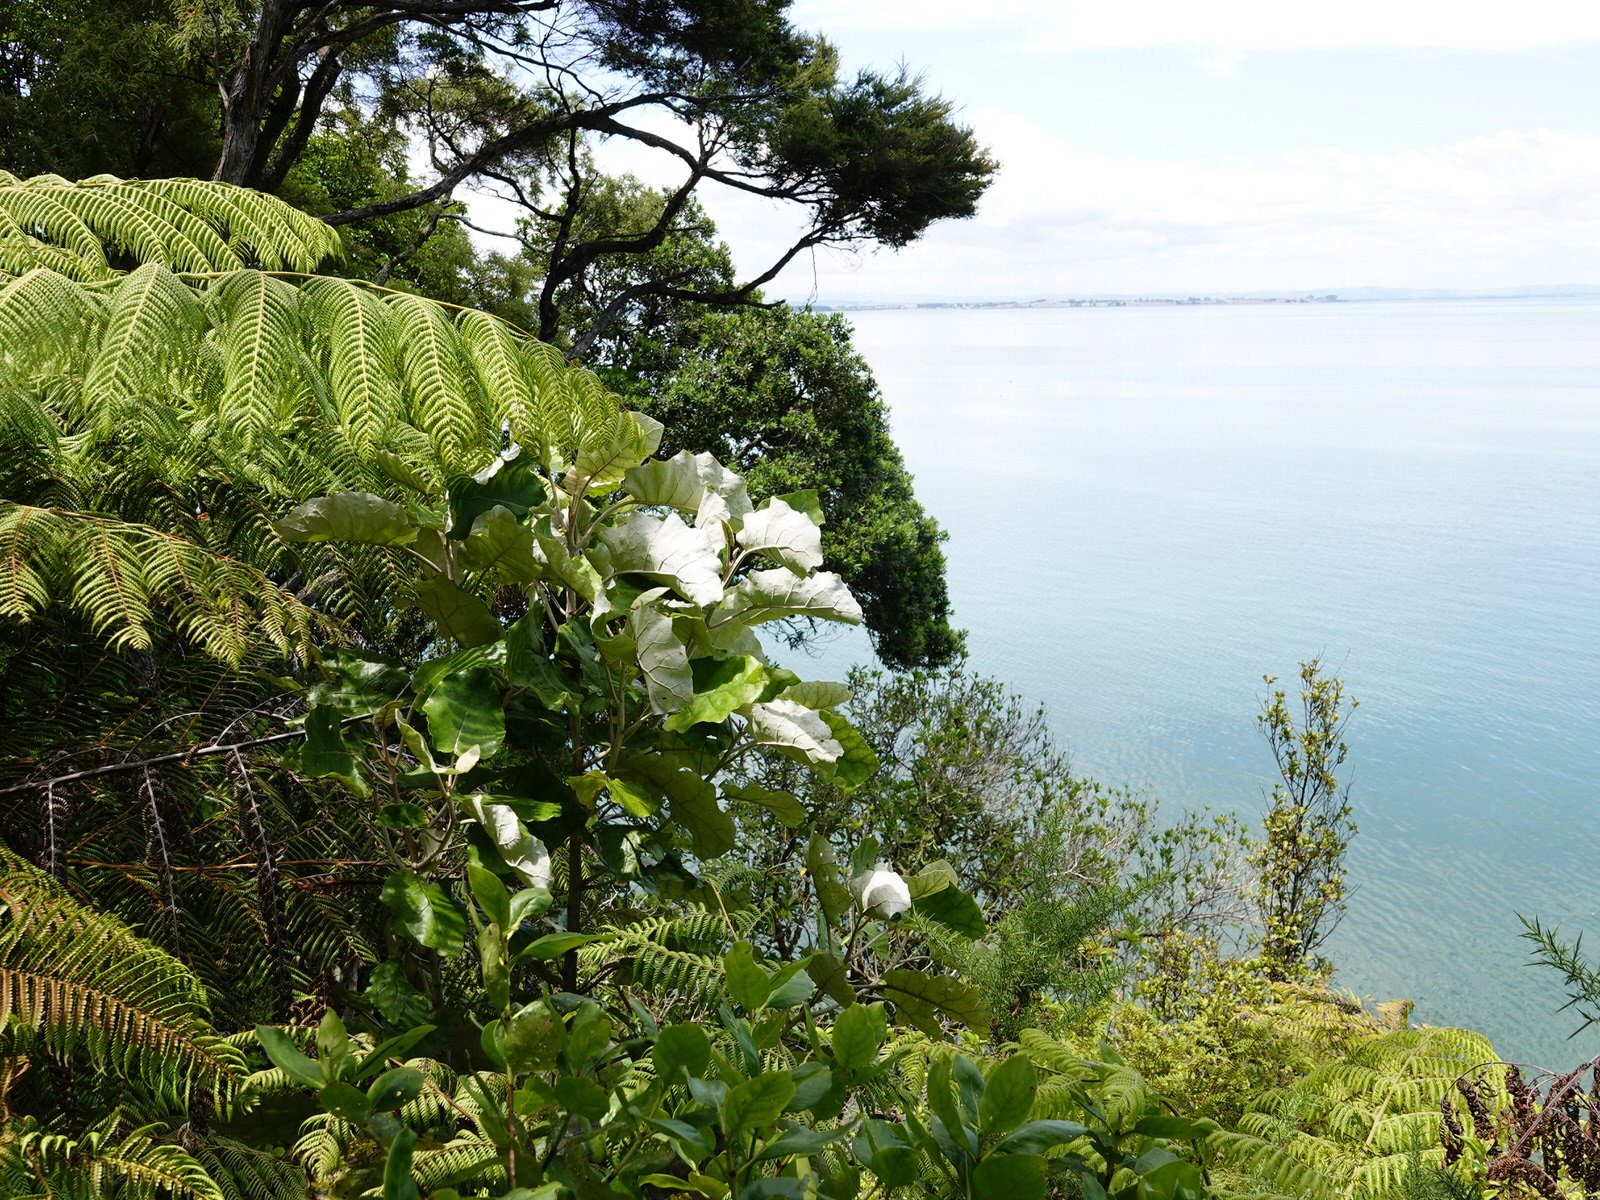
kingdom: Plantae
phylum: Tracheophyta
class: Magnoliopsida
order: Asterales
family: Asteraceae
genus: Brachyglottis
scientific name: Brachyglottis repanda
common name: Hedge ragwort
